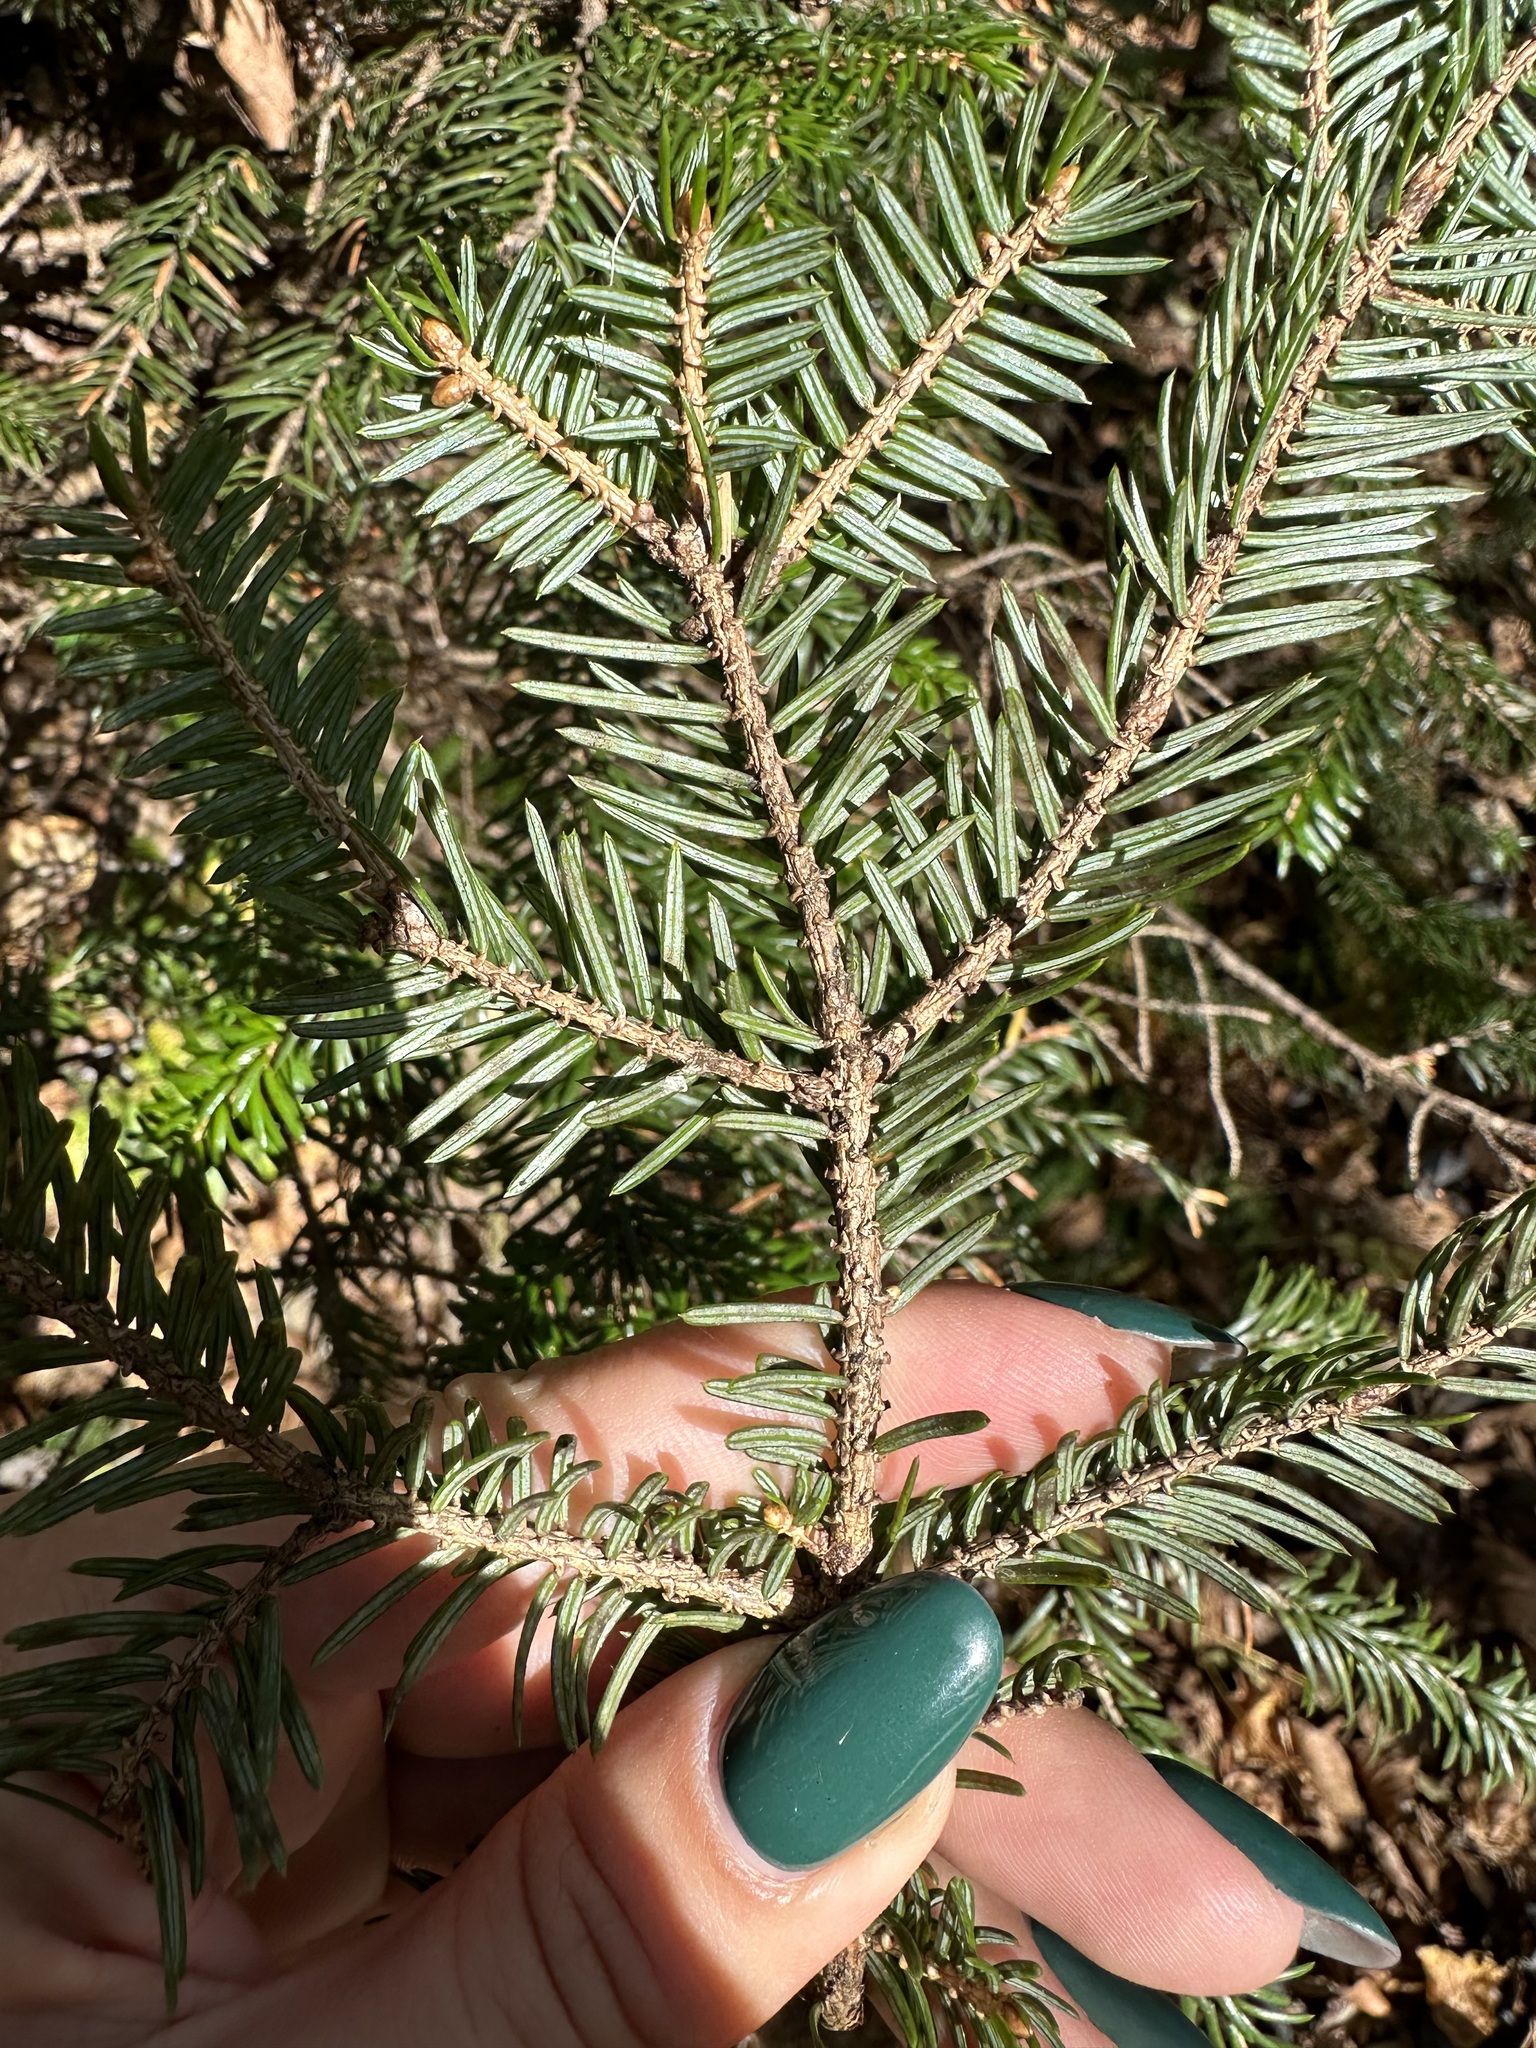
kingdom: Plantae
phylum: Tracheophyta
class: Pinopsida
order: Pinales
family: Pinaceae
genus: Picea
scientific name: Picea jezoensis
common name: Yeddo spruce
